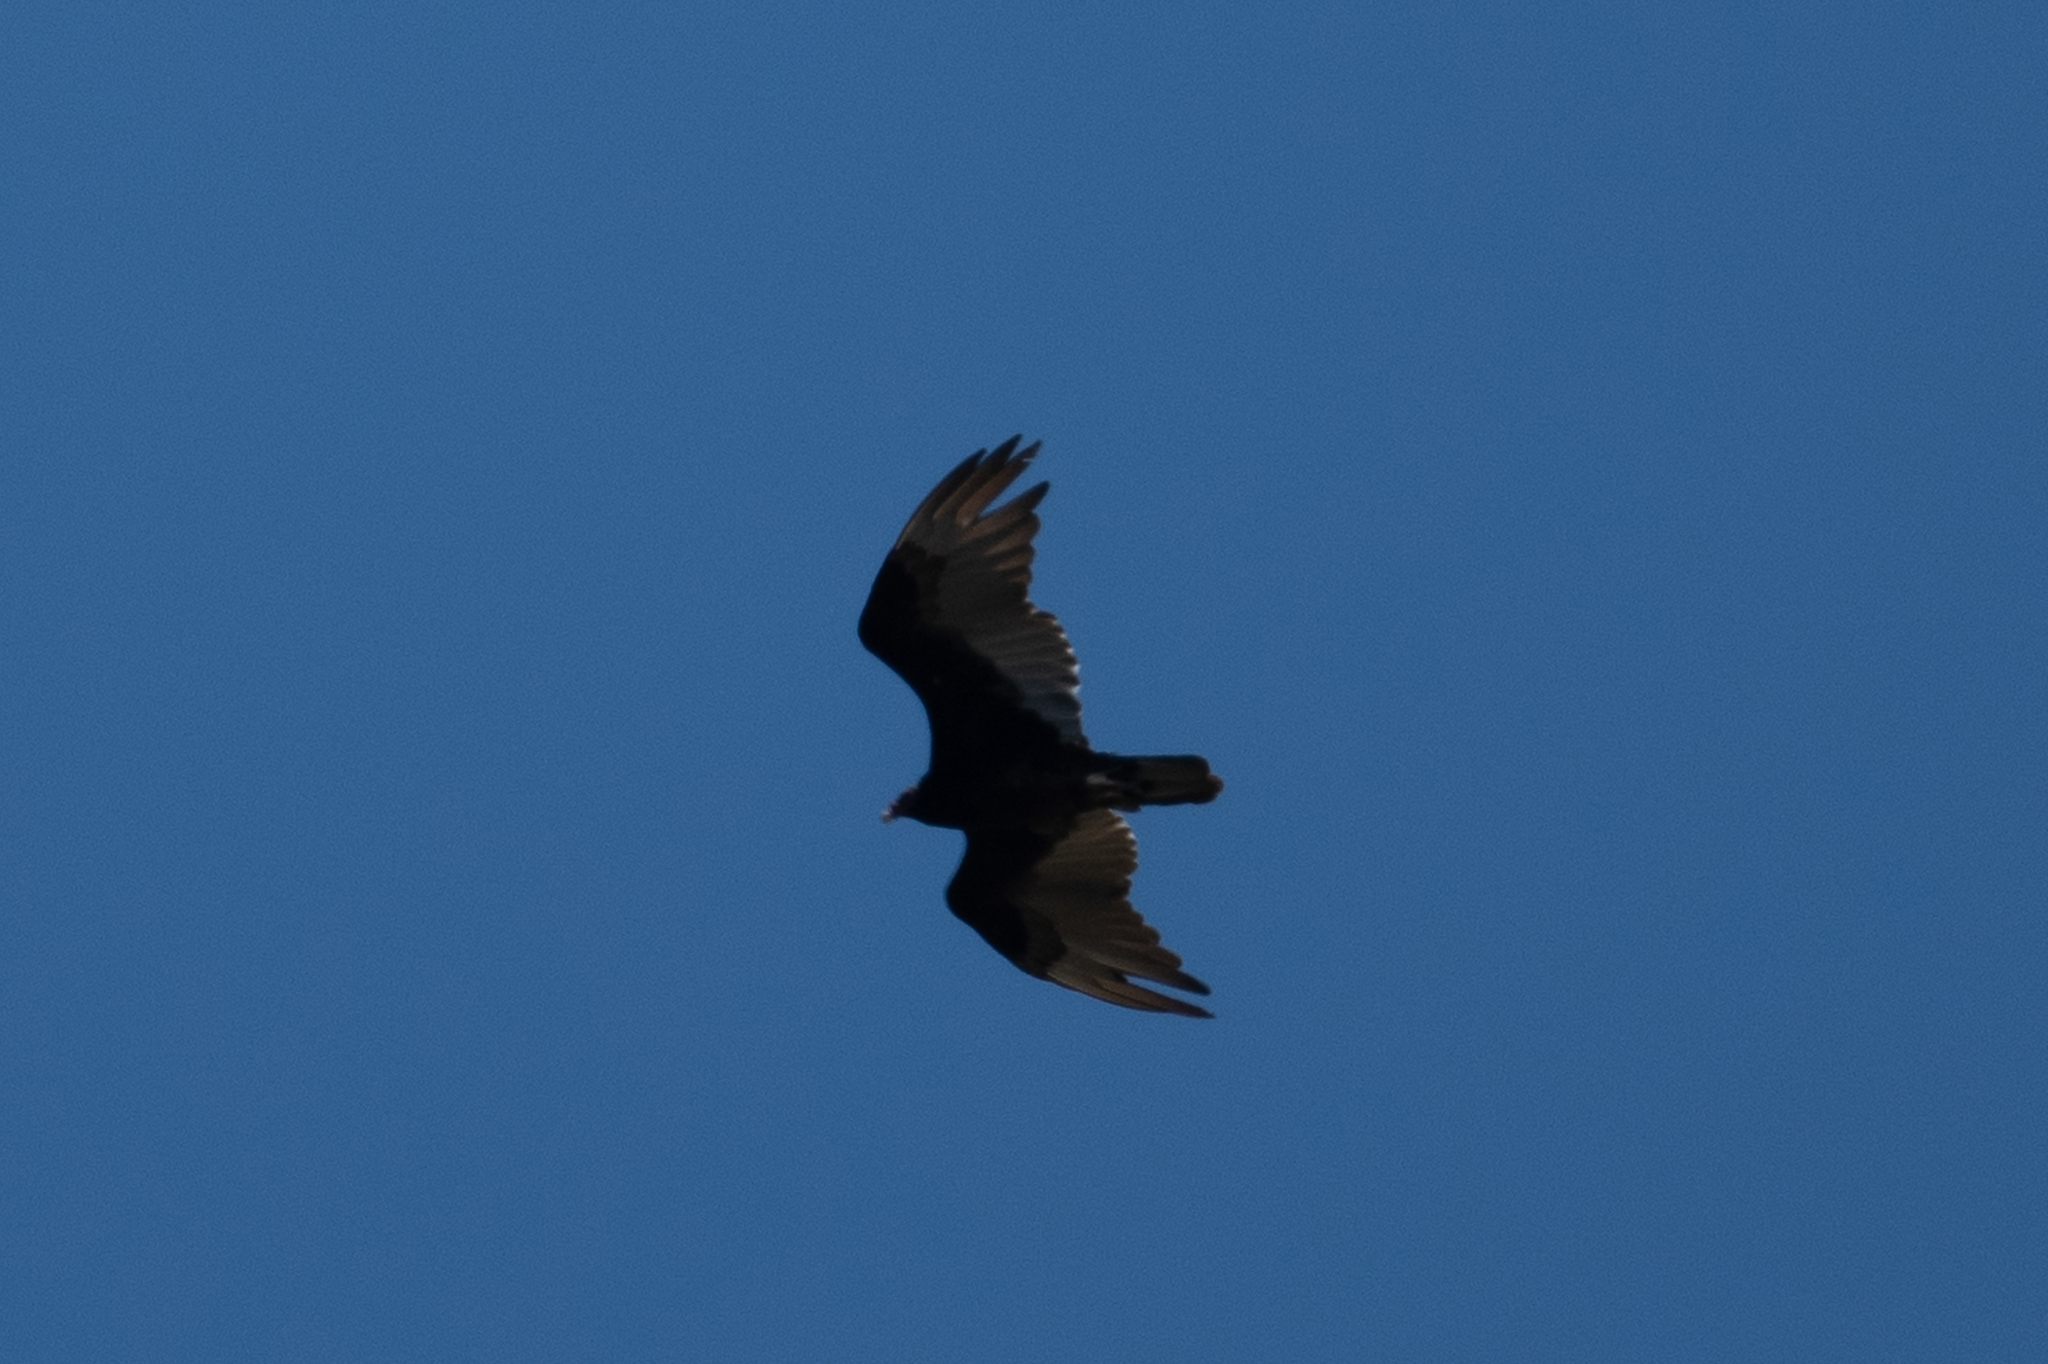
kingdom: Animalia
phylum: Chordata
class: Aves
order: Accipitriformes
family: Cathartidae
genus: Cathartes
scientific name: Cathartes aura
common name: Turkey vulture
